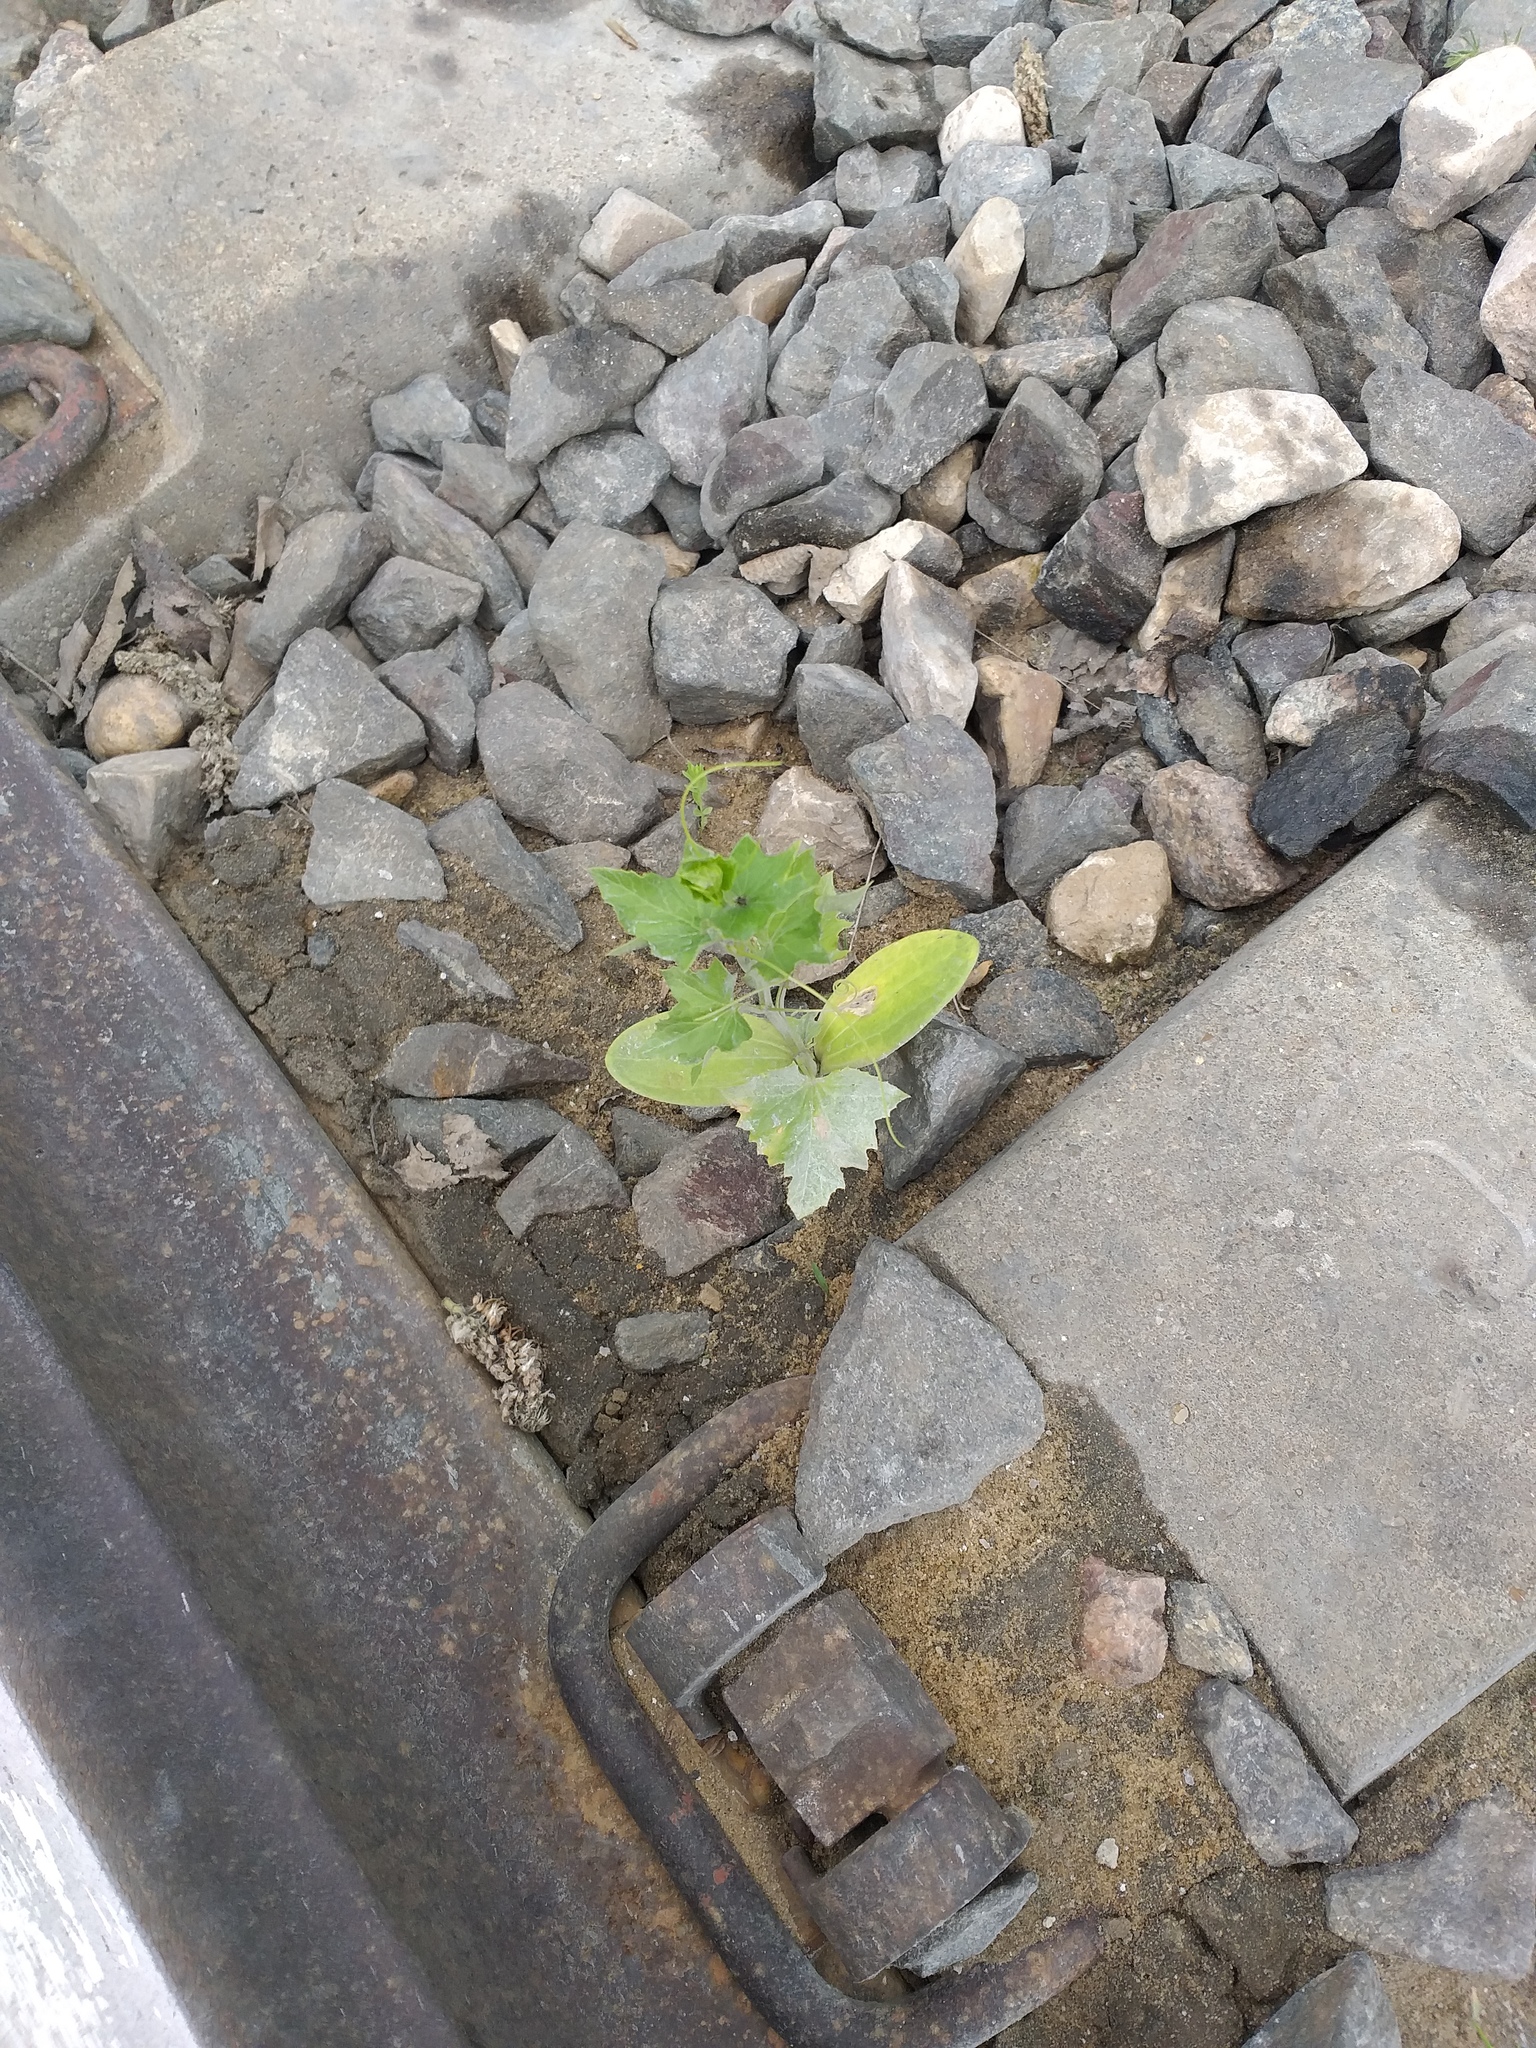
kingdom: Plantae
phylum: Tracheophyta
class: Magnoliopsida
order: Cucurbitales
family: Cucurbitaceae
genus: Echinocystis
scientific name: Echinocystis lobata
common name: Wild cucumber
